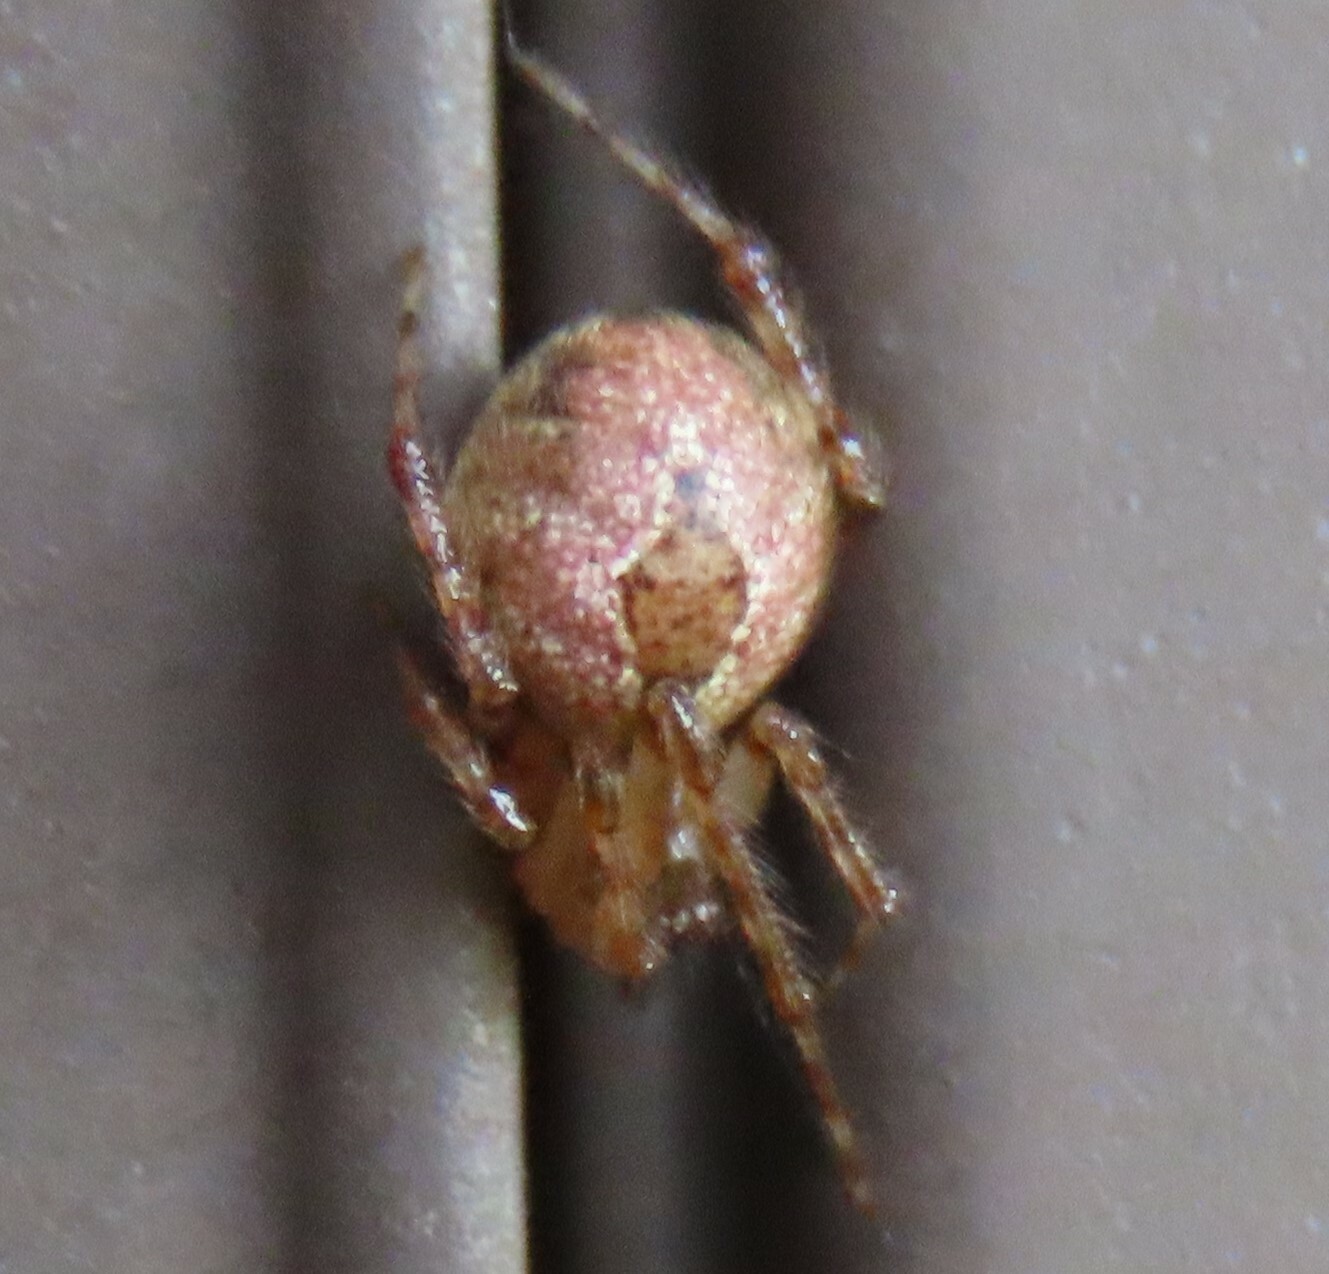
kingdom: Animalia
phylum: Arthropoda
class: Arachnida
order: Araneae
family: Theridiidae
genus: Cryptachaea
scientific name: Cryptachaea veruculata
